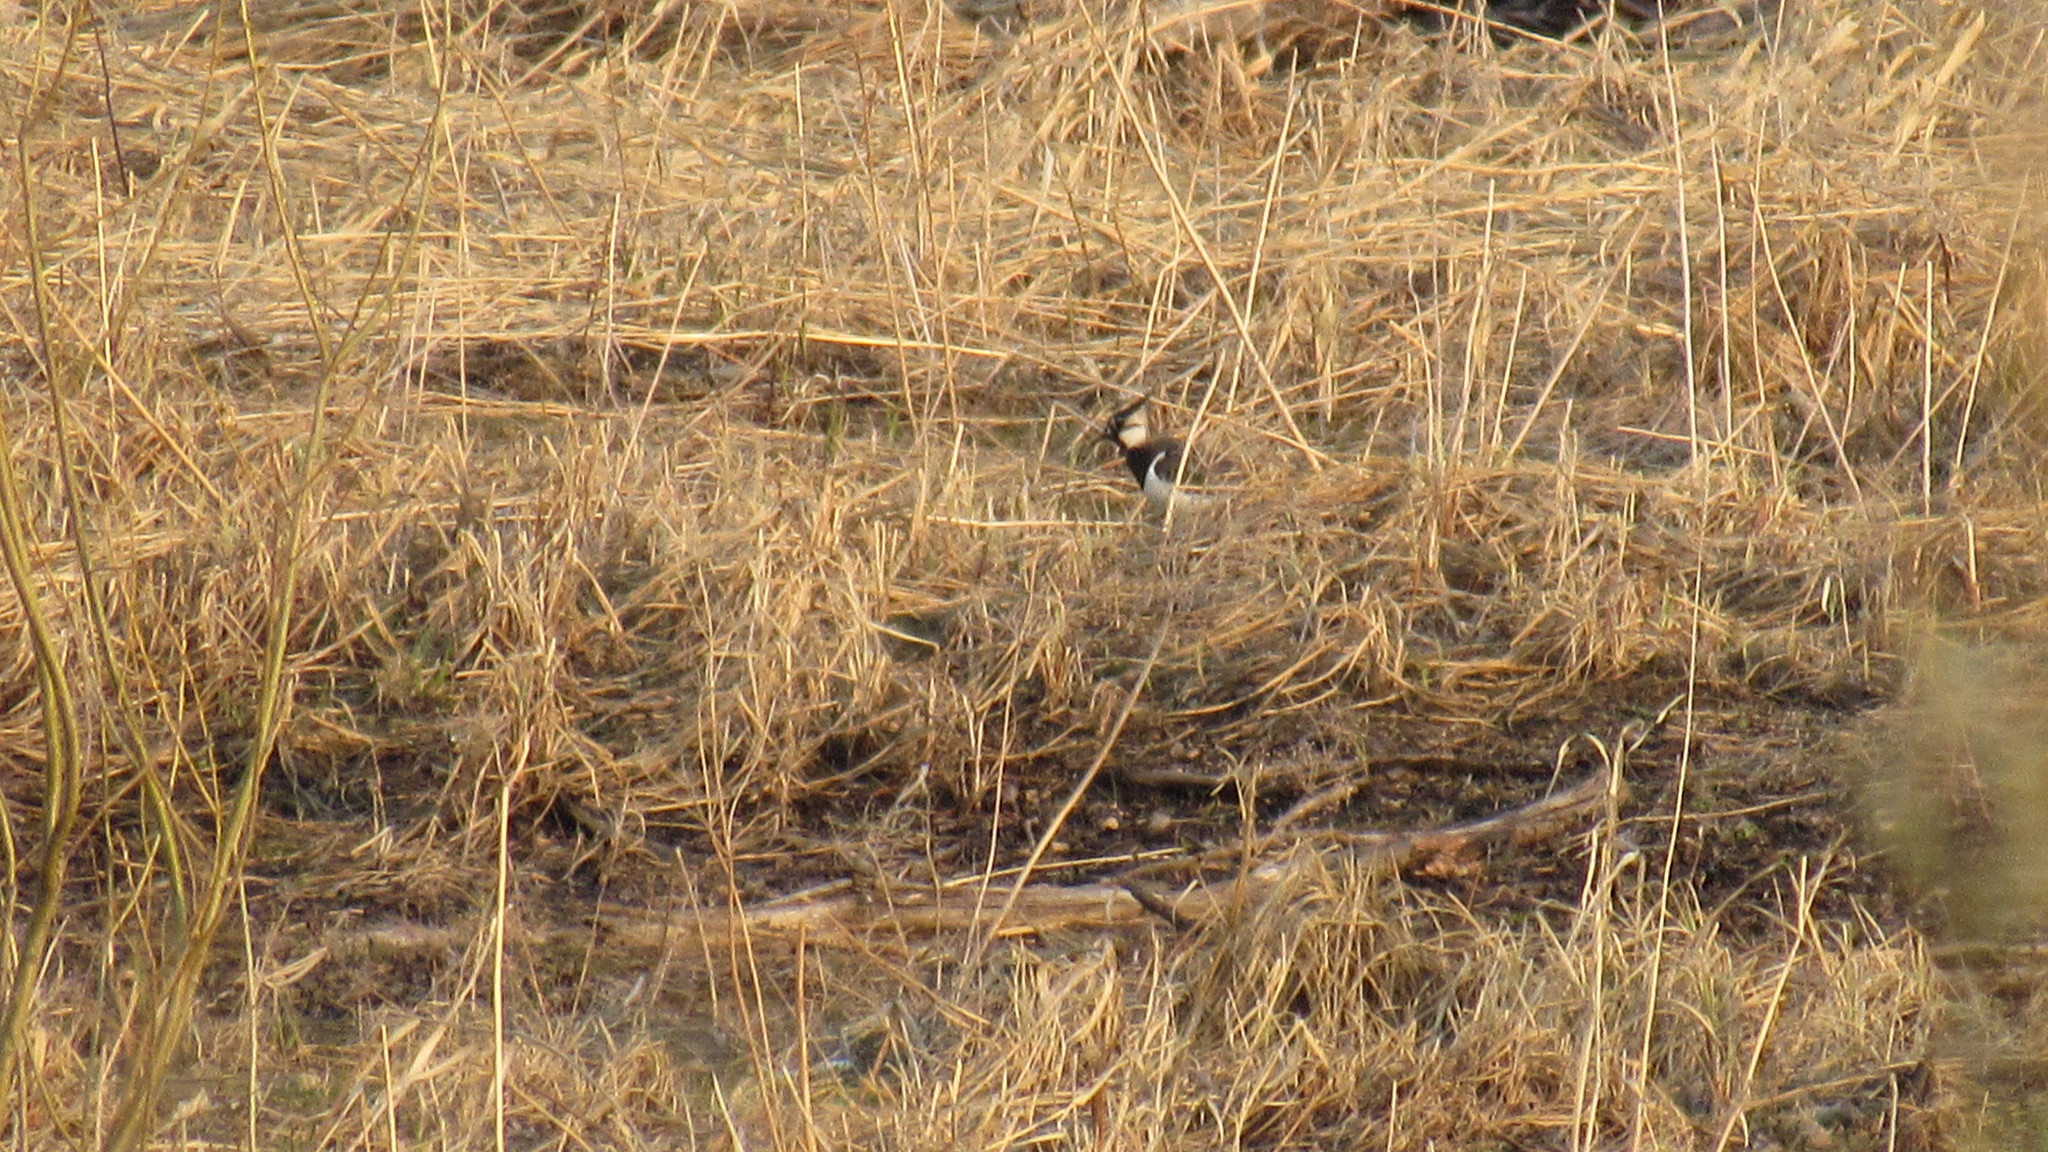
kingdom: Animalia
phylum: Chordata
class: Aves
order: Charadriiformes
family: Charadriidae
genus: Vanellus
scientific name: Vanellus vanellus
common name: Northern lapwing
